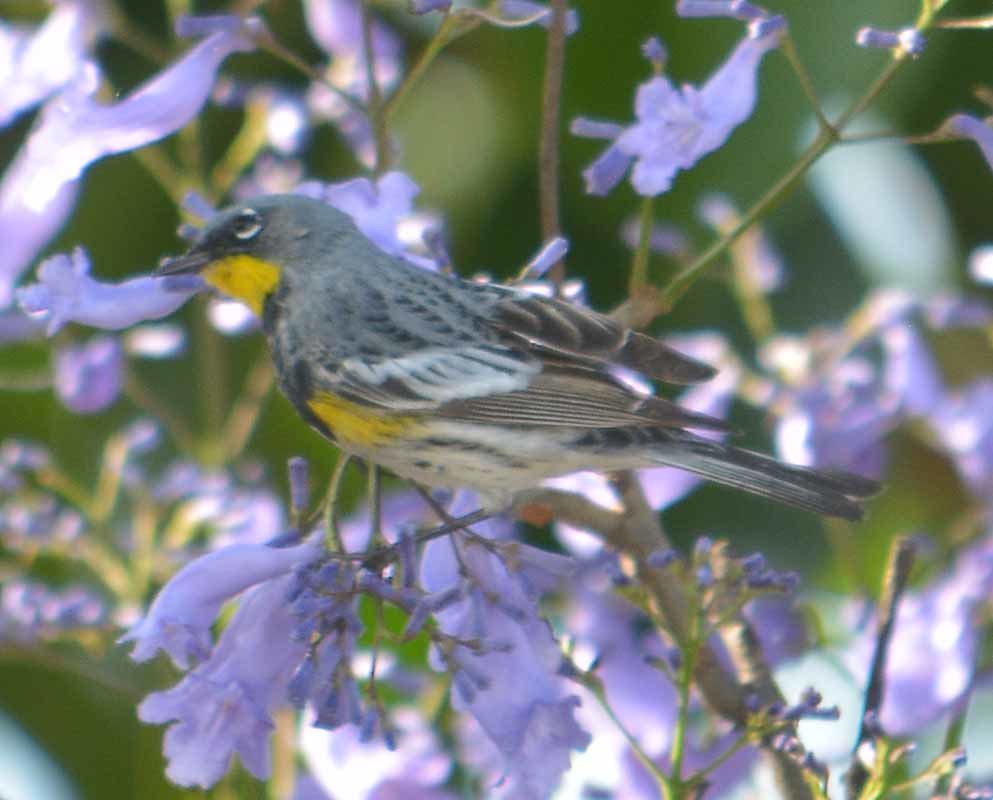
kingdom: Animalia
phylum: Chordata
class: Aves
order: Passeriformes
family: Parulidae
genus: Setophaga
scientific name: Setophaga auduboni
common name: Audubon's warbler
